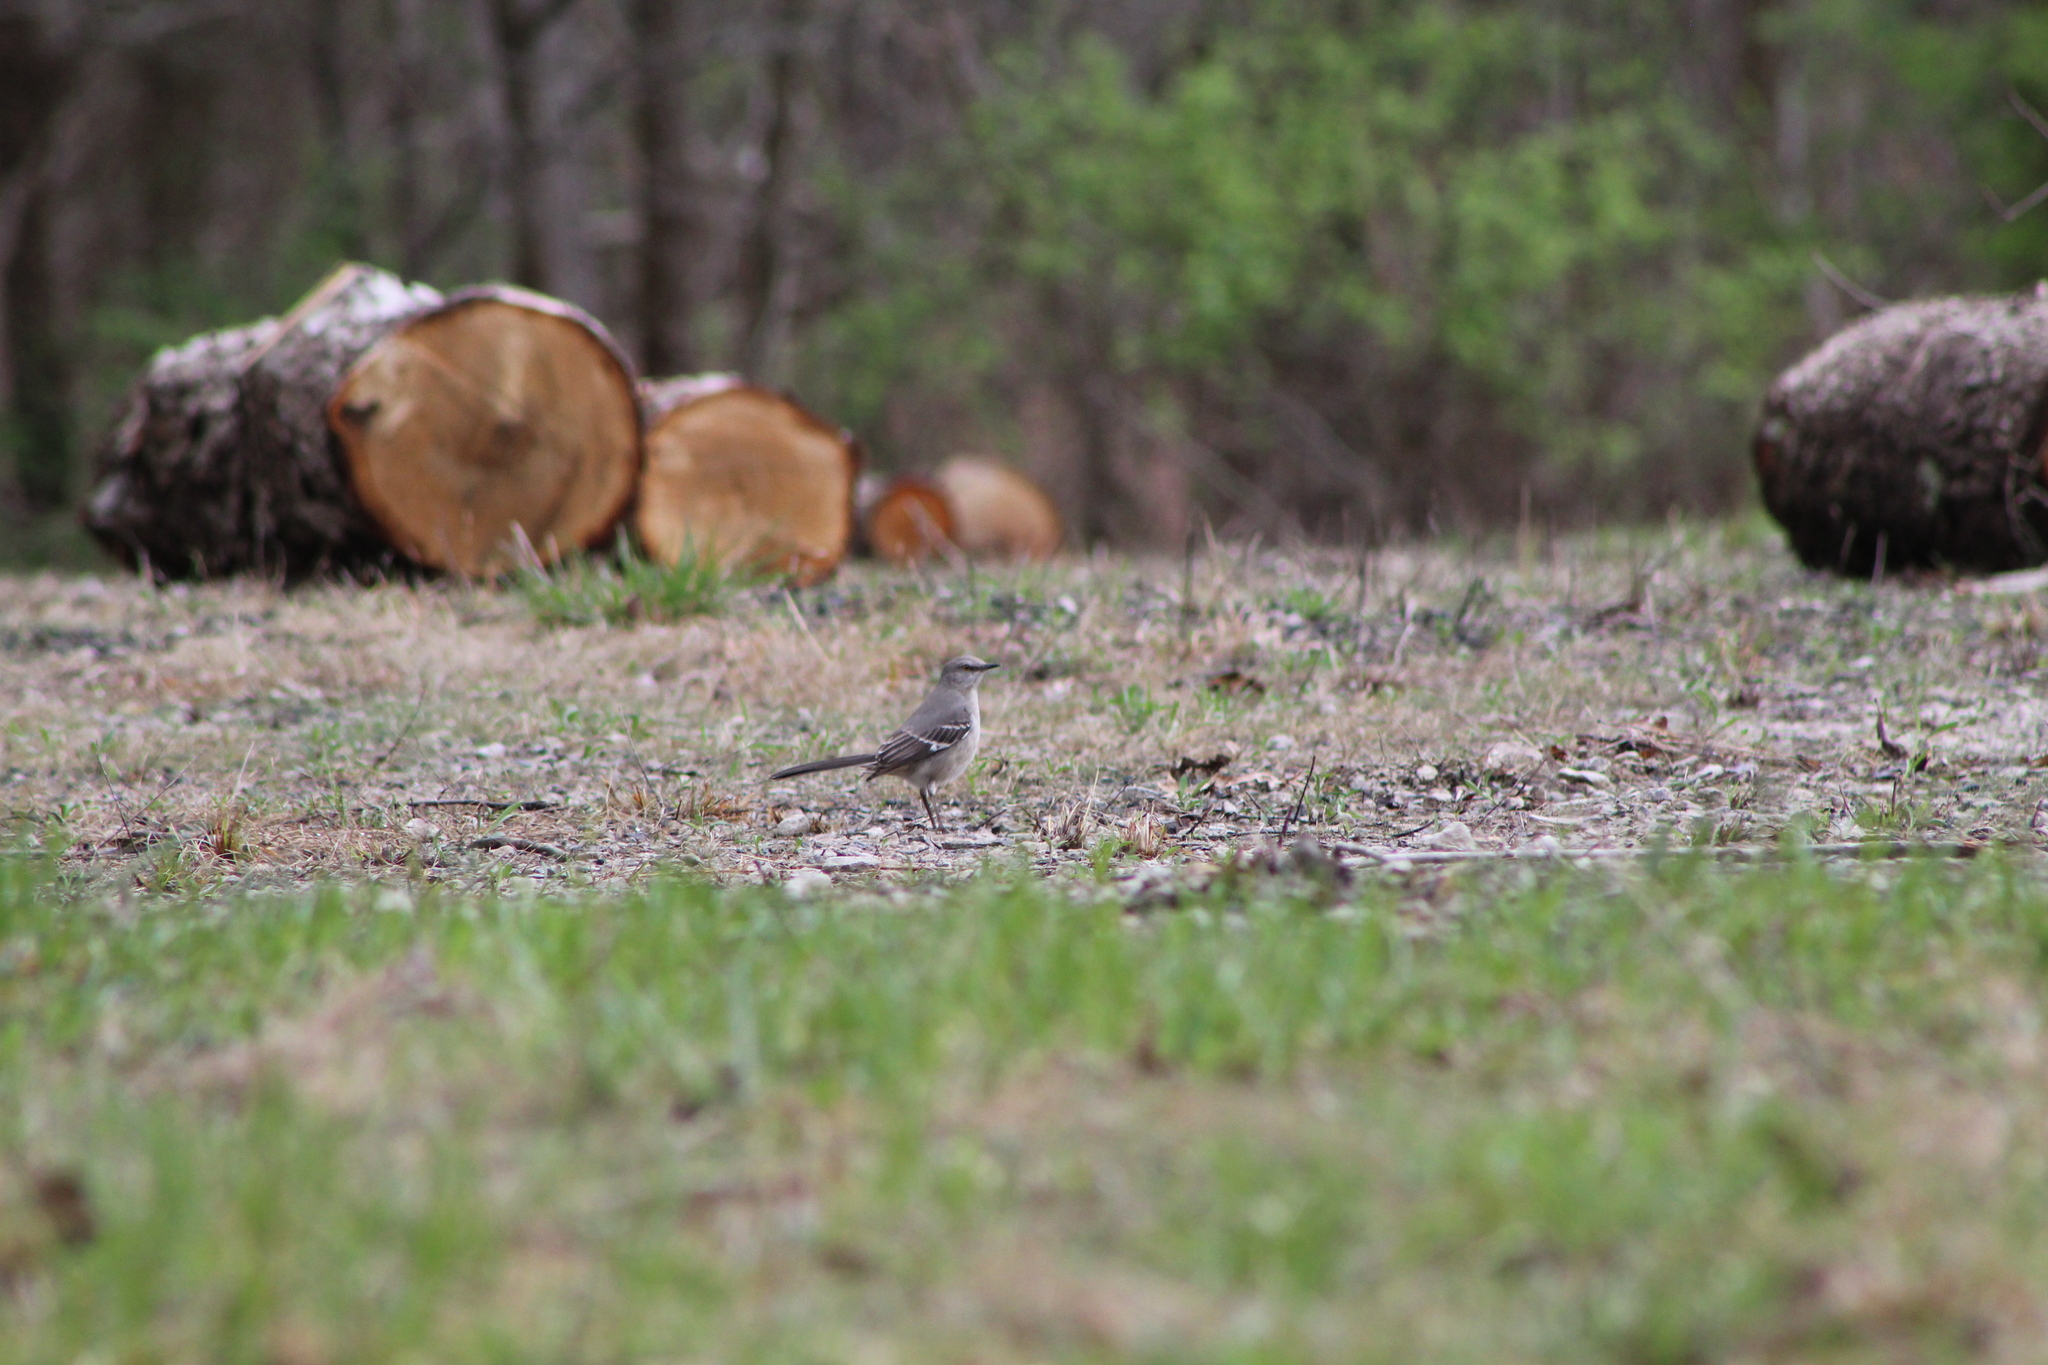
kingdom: Animalia
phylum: Chordata
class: Aves
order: Passeriformes
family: Mimidae
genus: Mimus
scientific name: Mimus polyglottos
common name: Northern mockingbird
